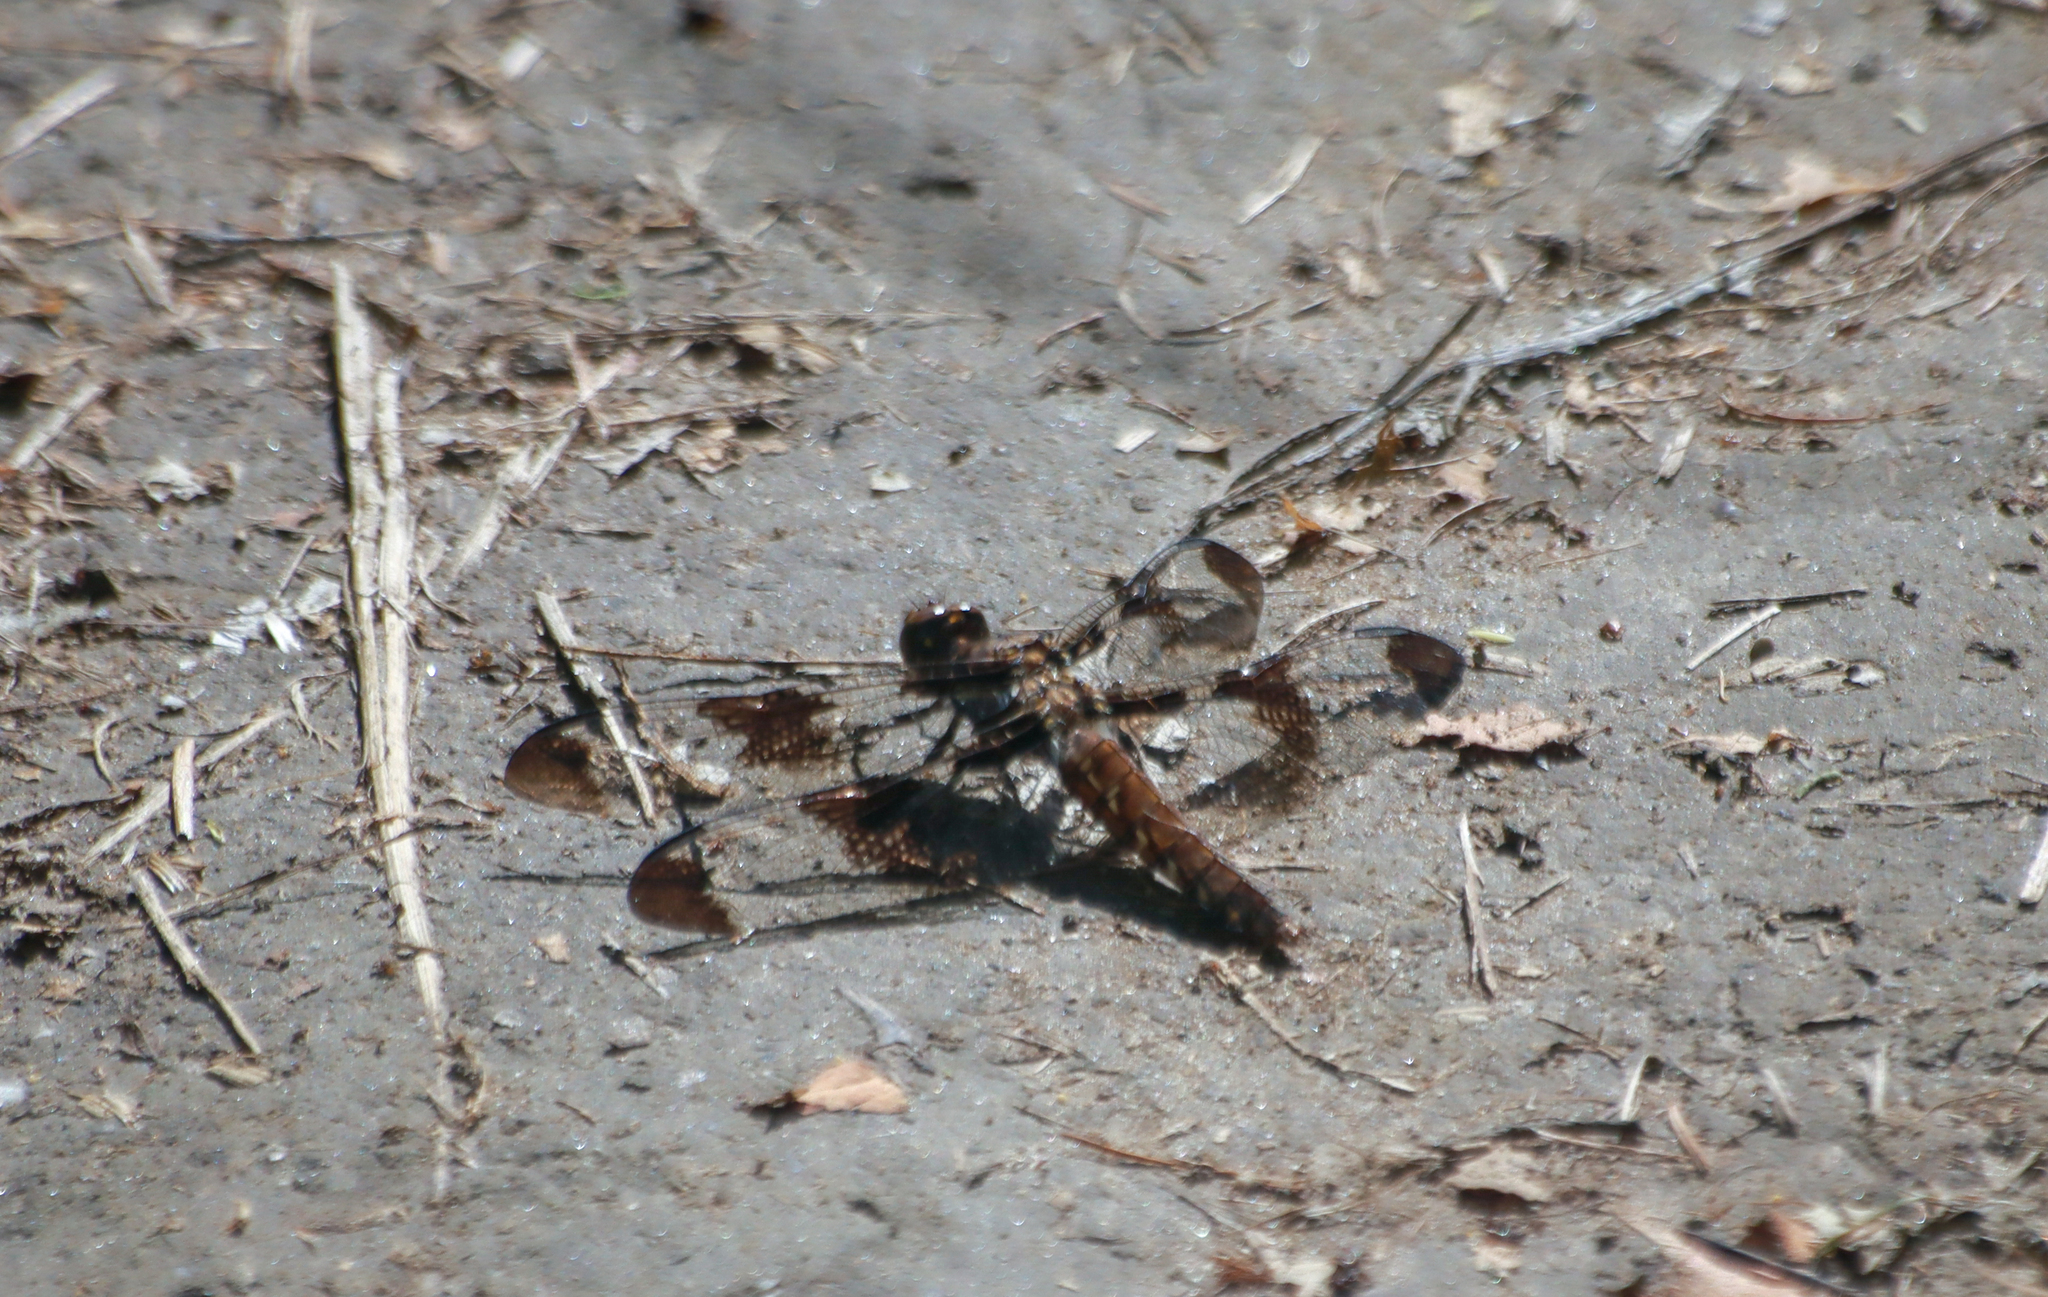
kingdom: Animalia
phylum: Arthropoda
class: Insecta
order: Odonata
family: Libellulidae
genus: Plathemis
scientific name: Plathemis lydia
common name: Common whitetail
